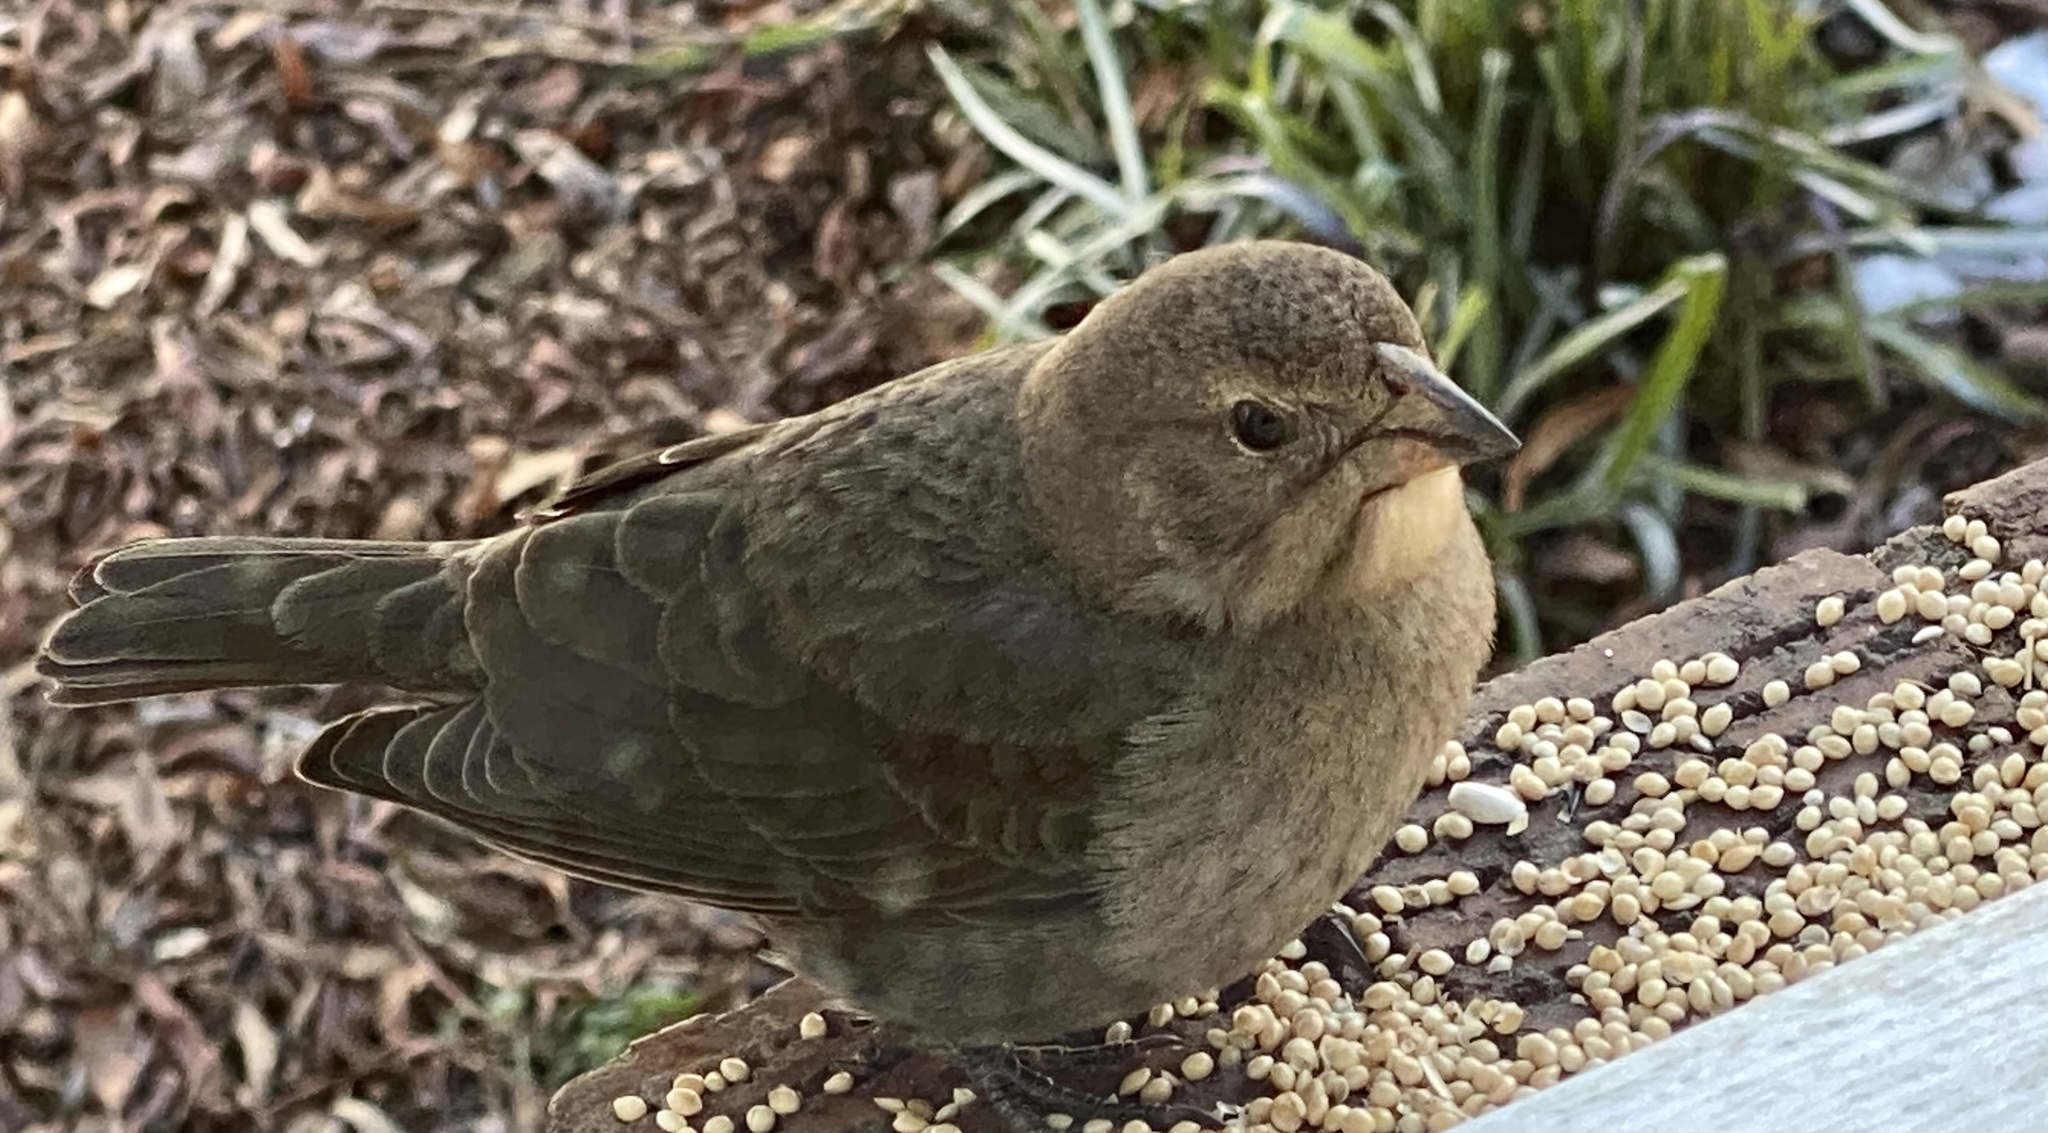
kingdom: Animalia
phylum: Chordata
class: Aves
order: Passeriformes
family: Icteridae
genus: Molothrus
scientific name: Molothrus ater
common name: Brown-headed cowbird
